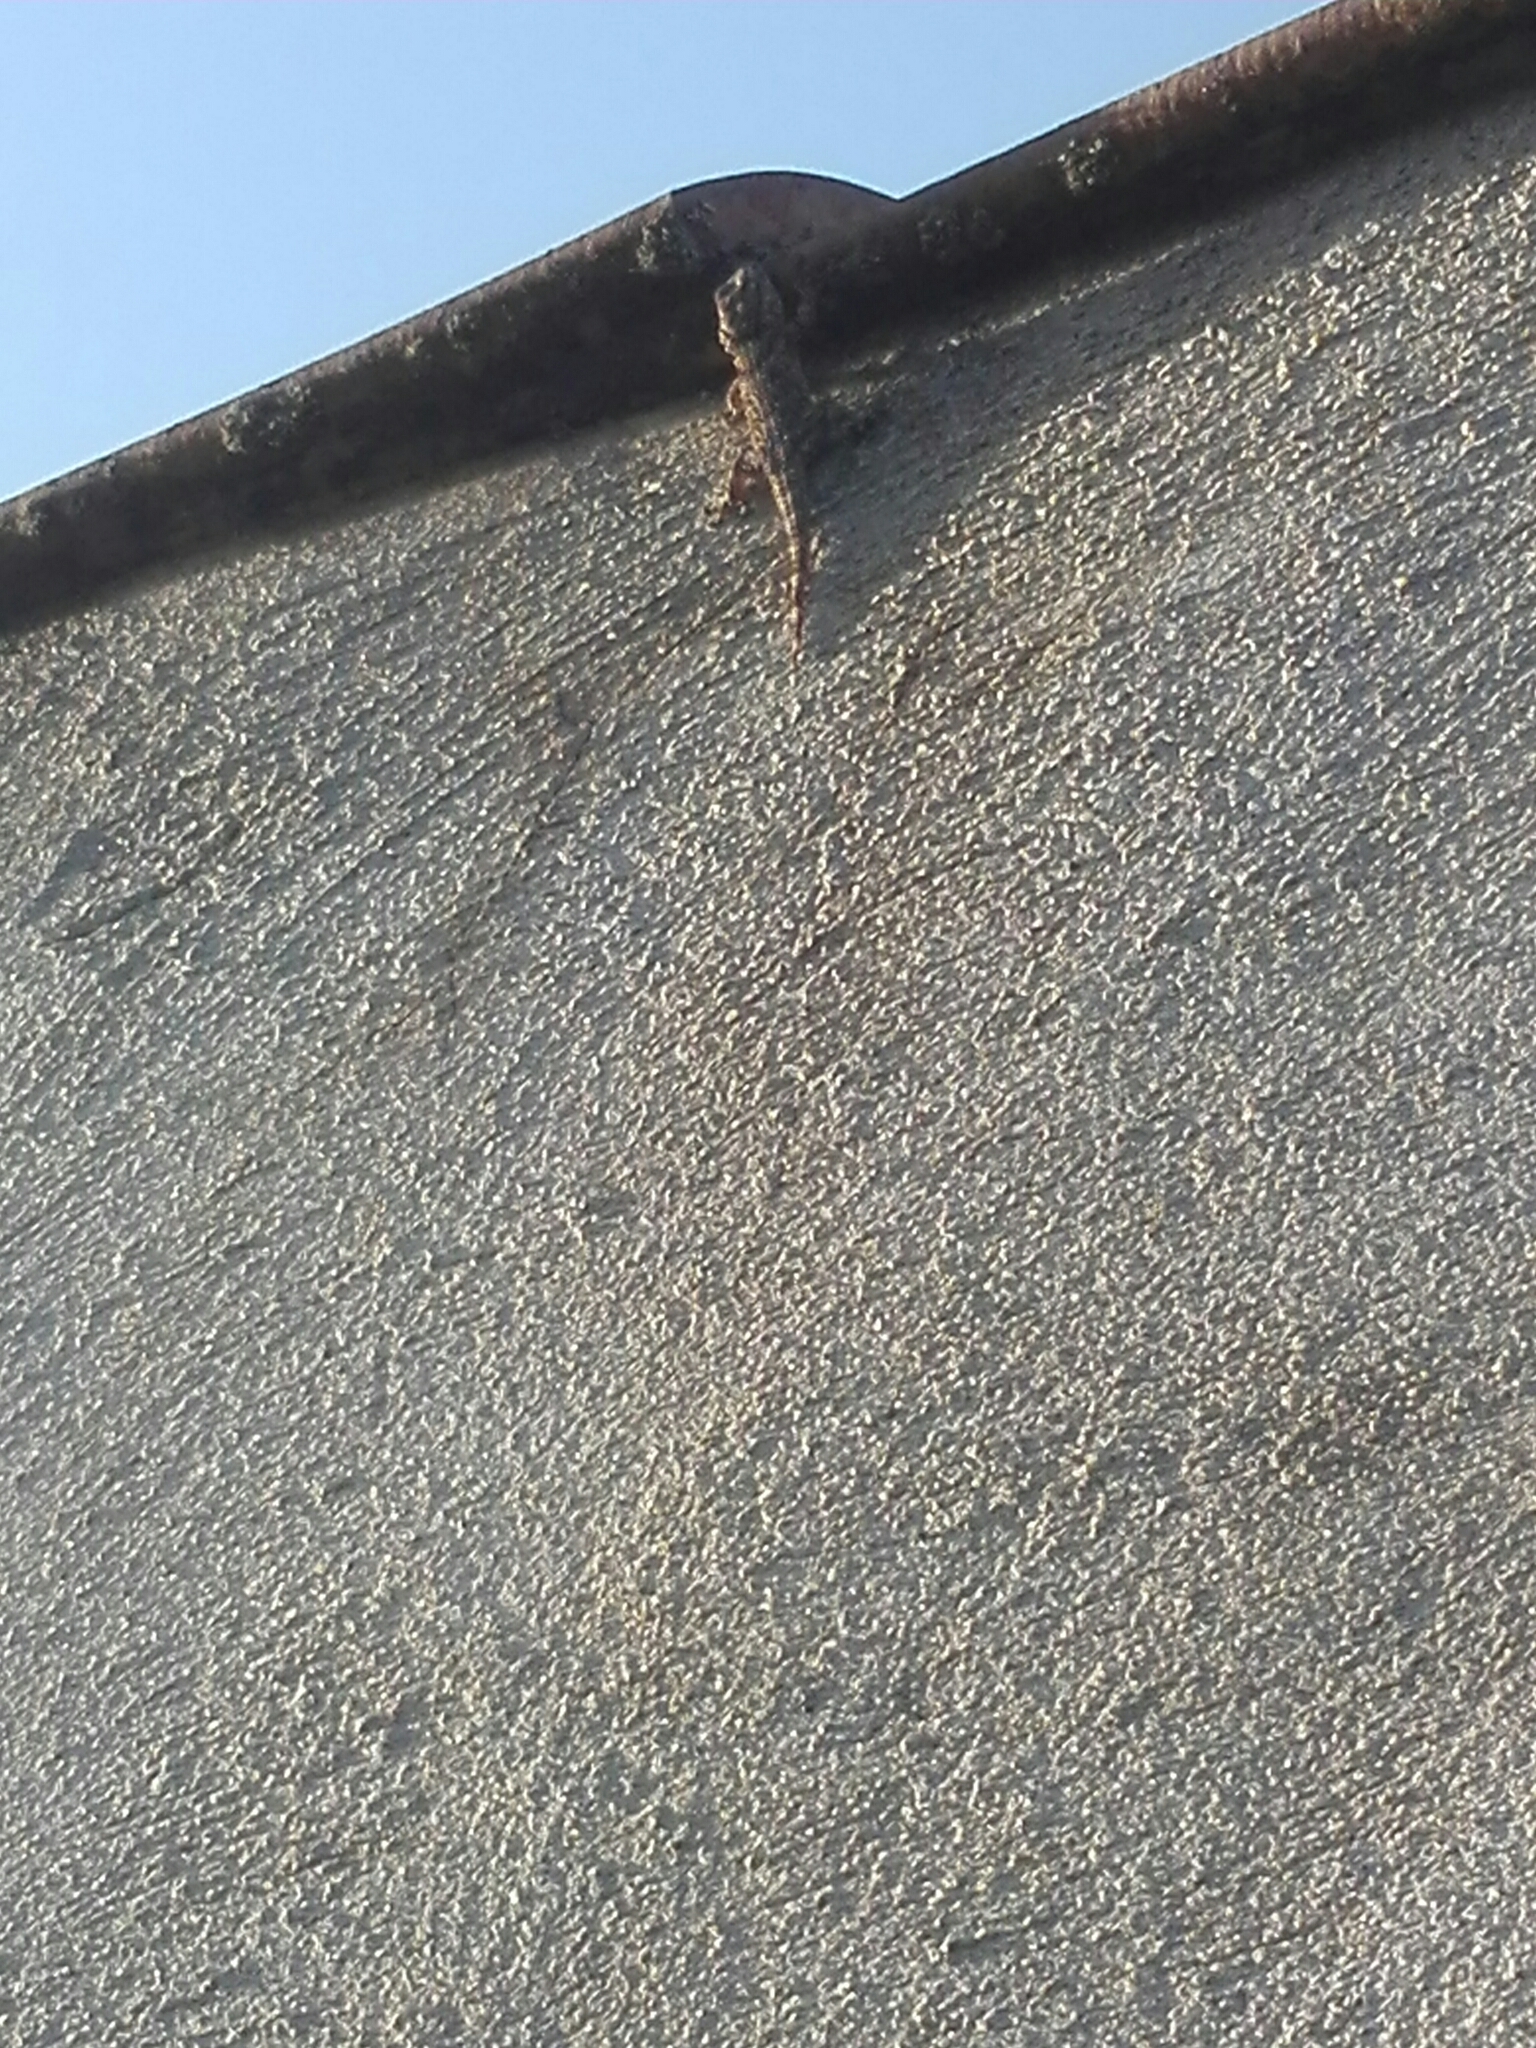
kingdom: Animalia
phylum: Chordata
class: Squamata
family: Phyllodactylidae
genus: Tarentola
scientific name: Tarentola mauritanica
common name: Moorish gecko
